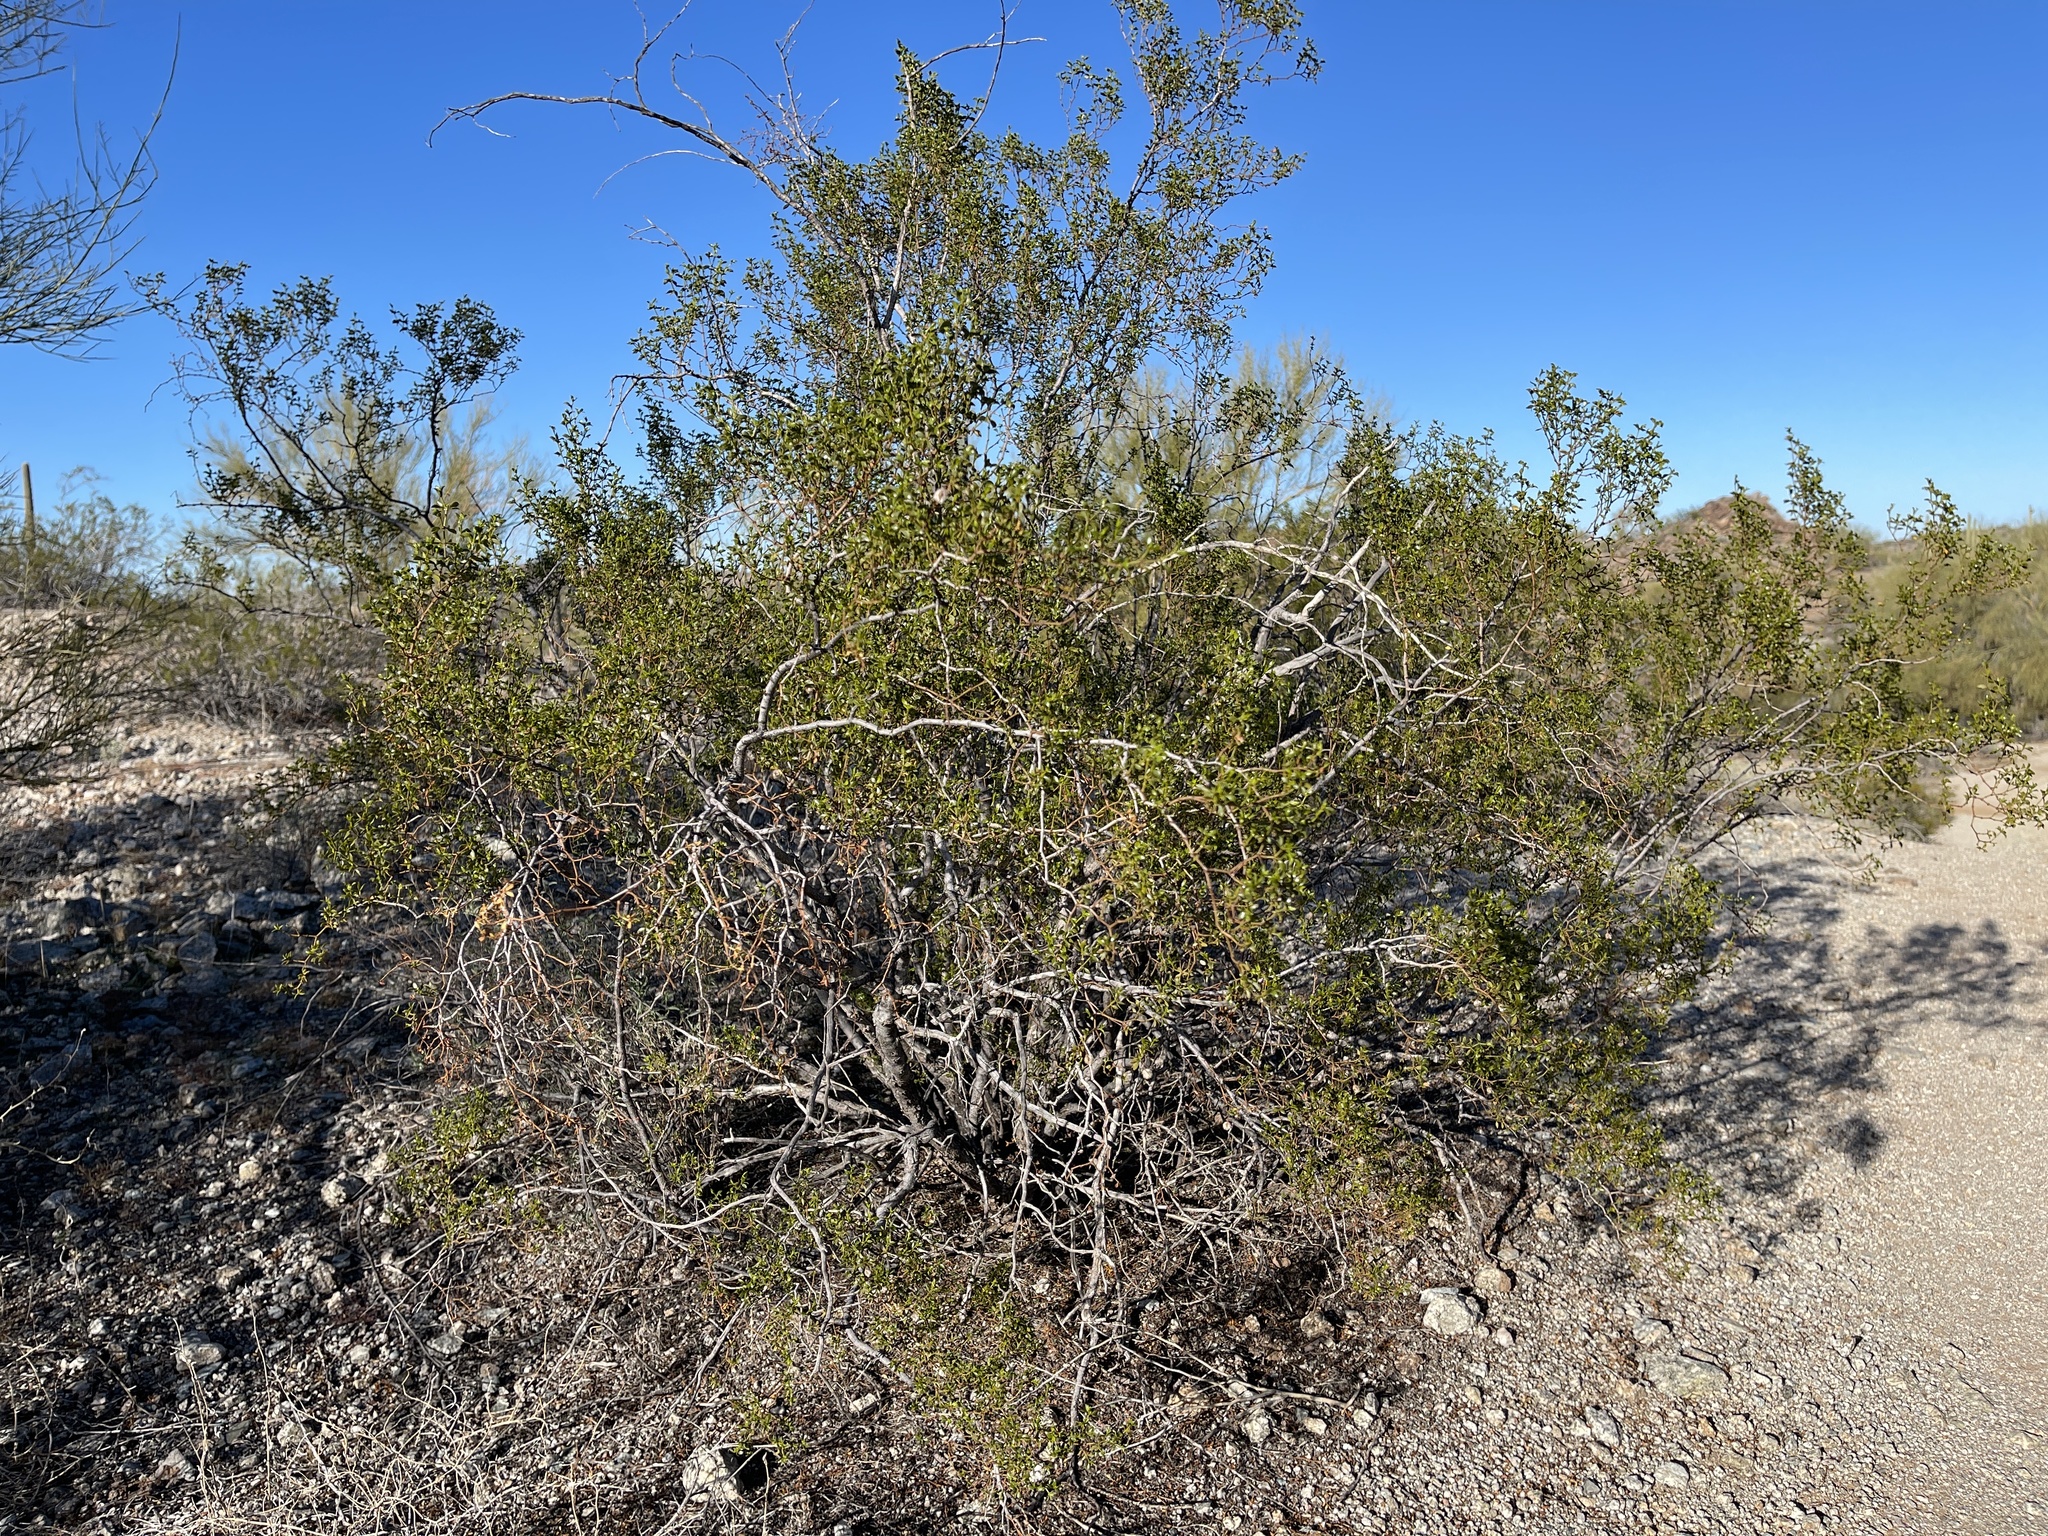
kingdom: Plantae
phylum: Tracheophyta
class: Magnoliopsida
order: Zygophyllales
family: Zygophyllaceae
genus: Larrea
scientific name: Larrea tridentata
